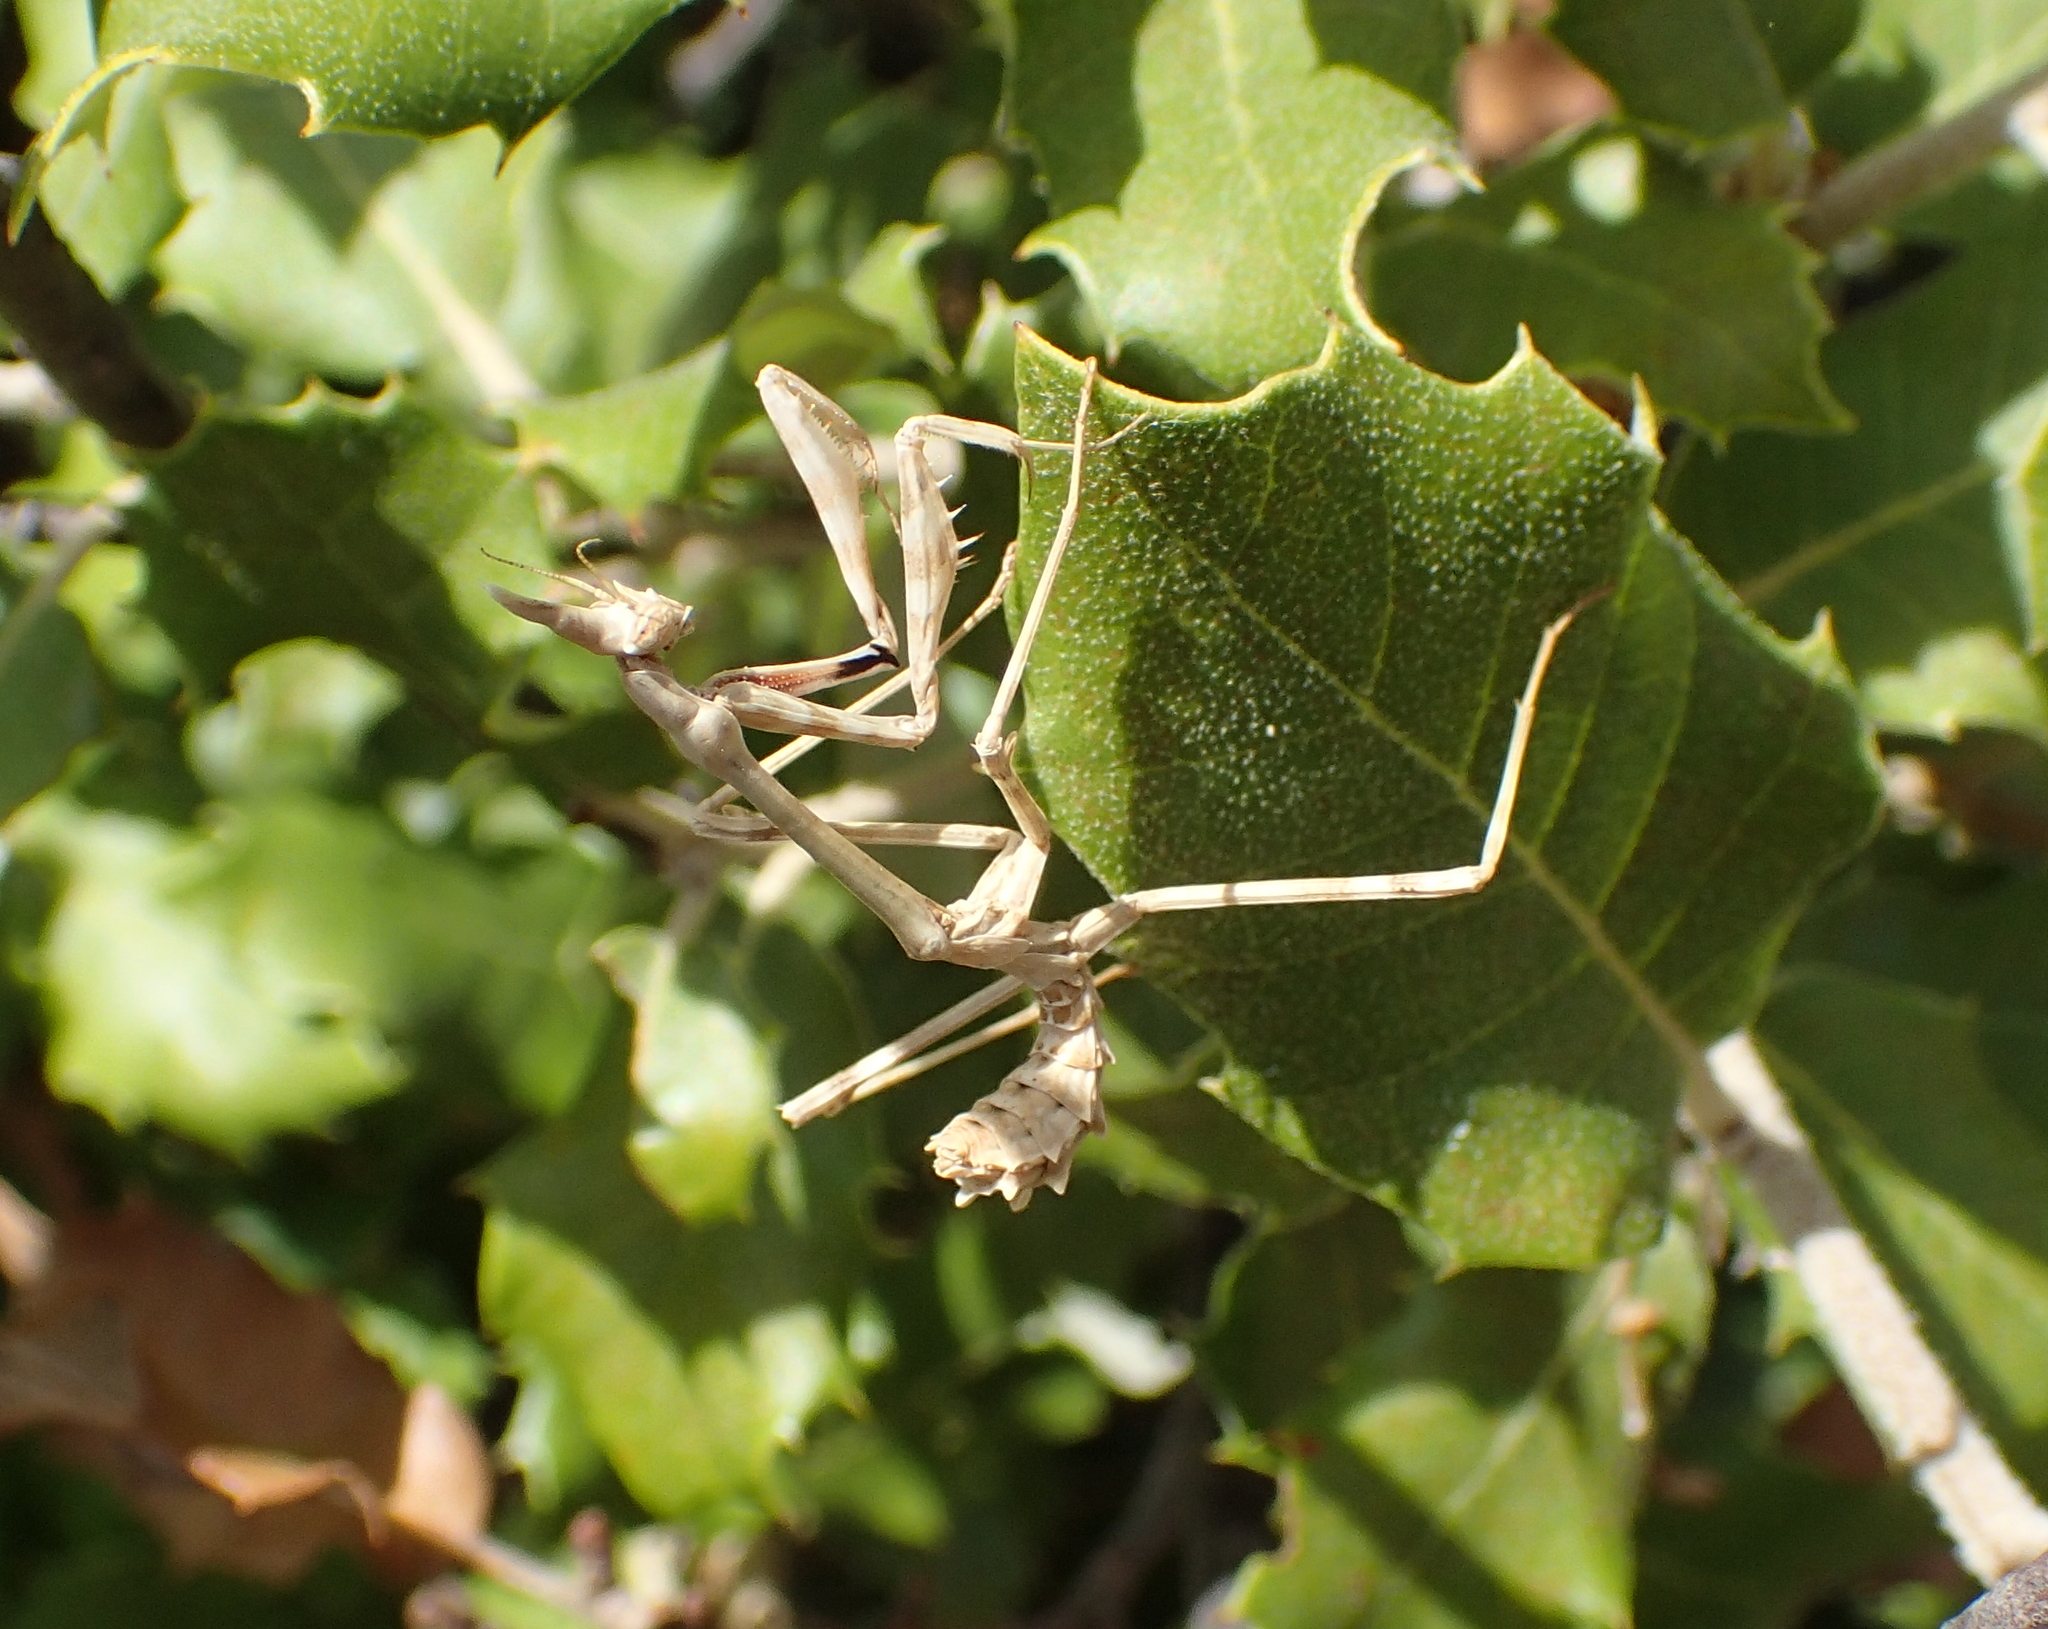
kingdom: Animalia
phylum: Arthropoda
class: Insecta
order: Mantodea
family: Empusidae
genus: Empusa
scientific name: Empusa pennata
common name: Conehead mantis
